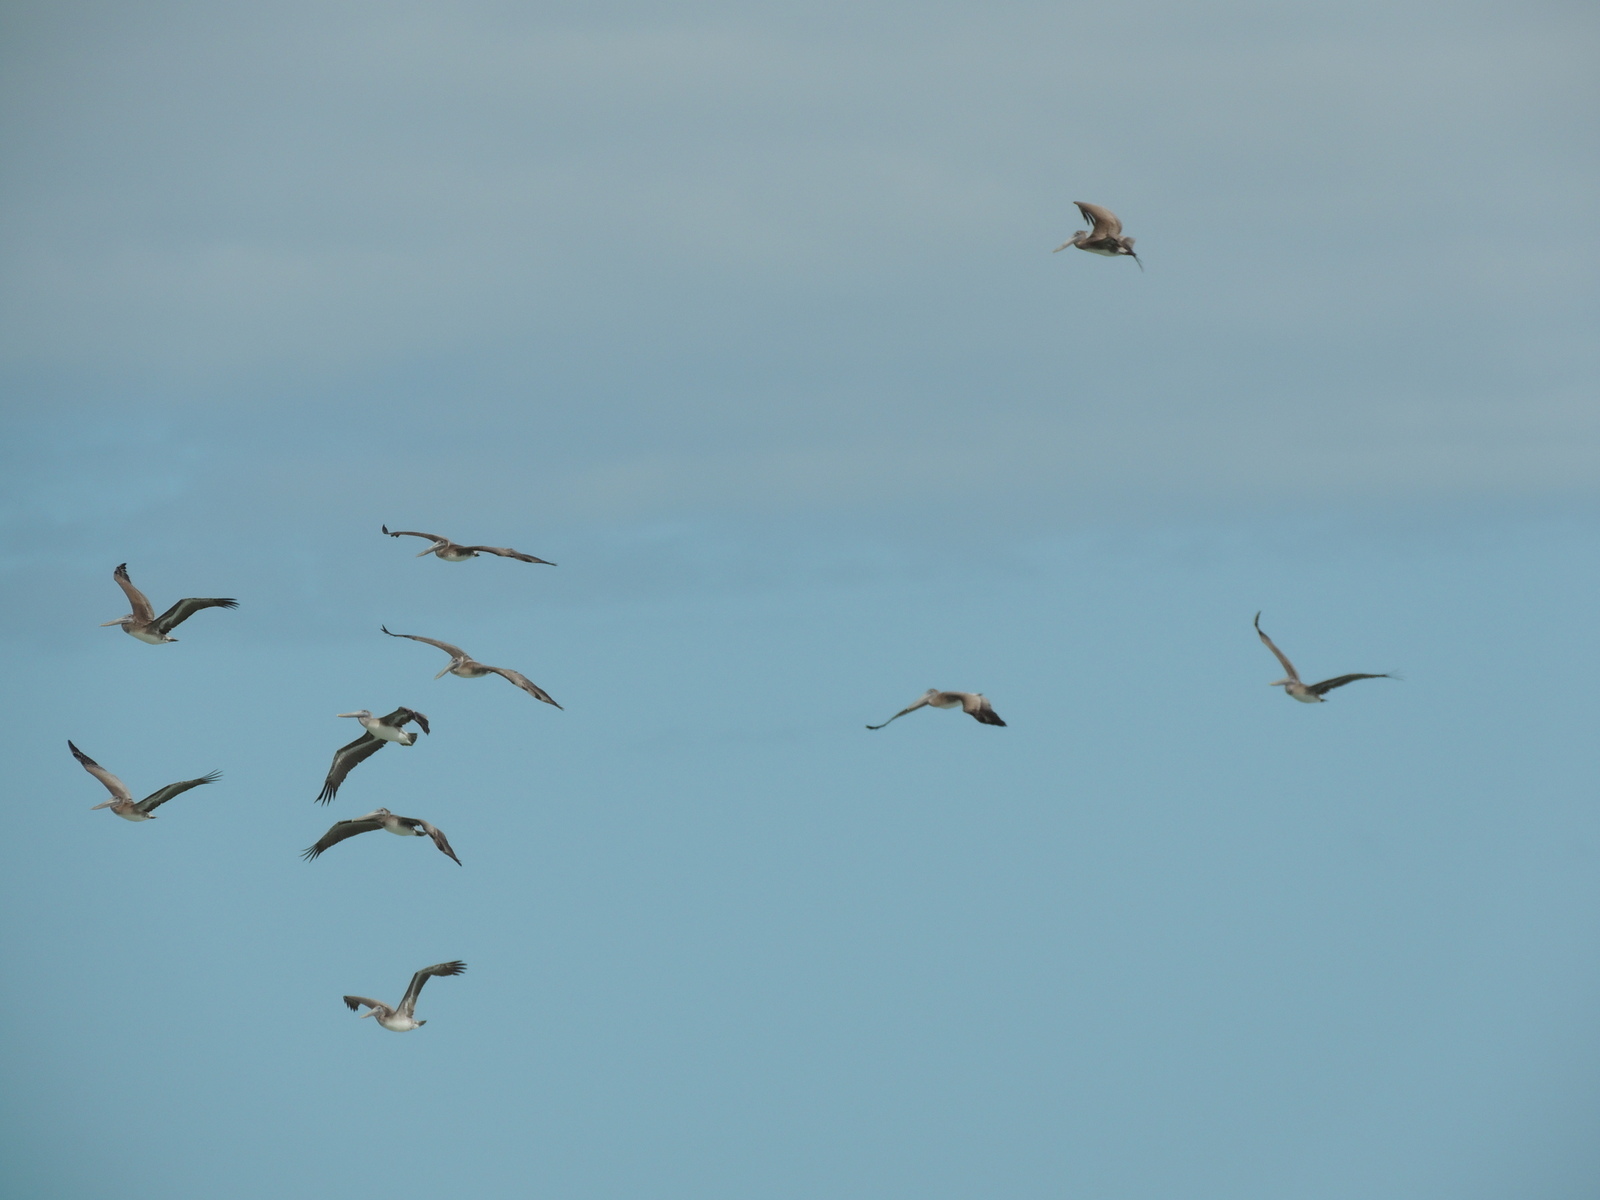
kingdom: Animalia
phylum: Chordata
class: Aves
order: Pelecaniformes
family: Pelecanidae
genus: Pelecanus
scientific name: Pelecanus occidentalis
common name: Brown pelican
